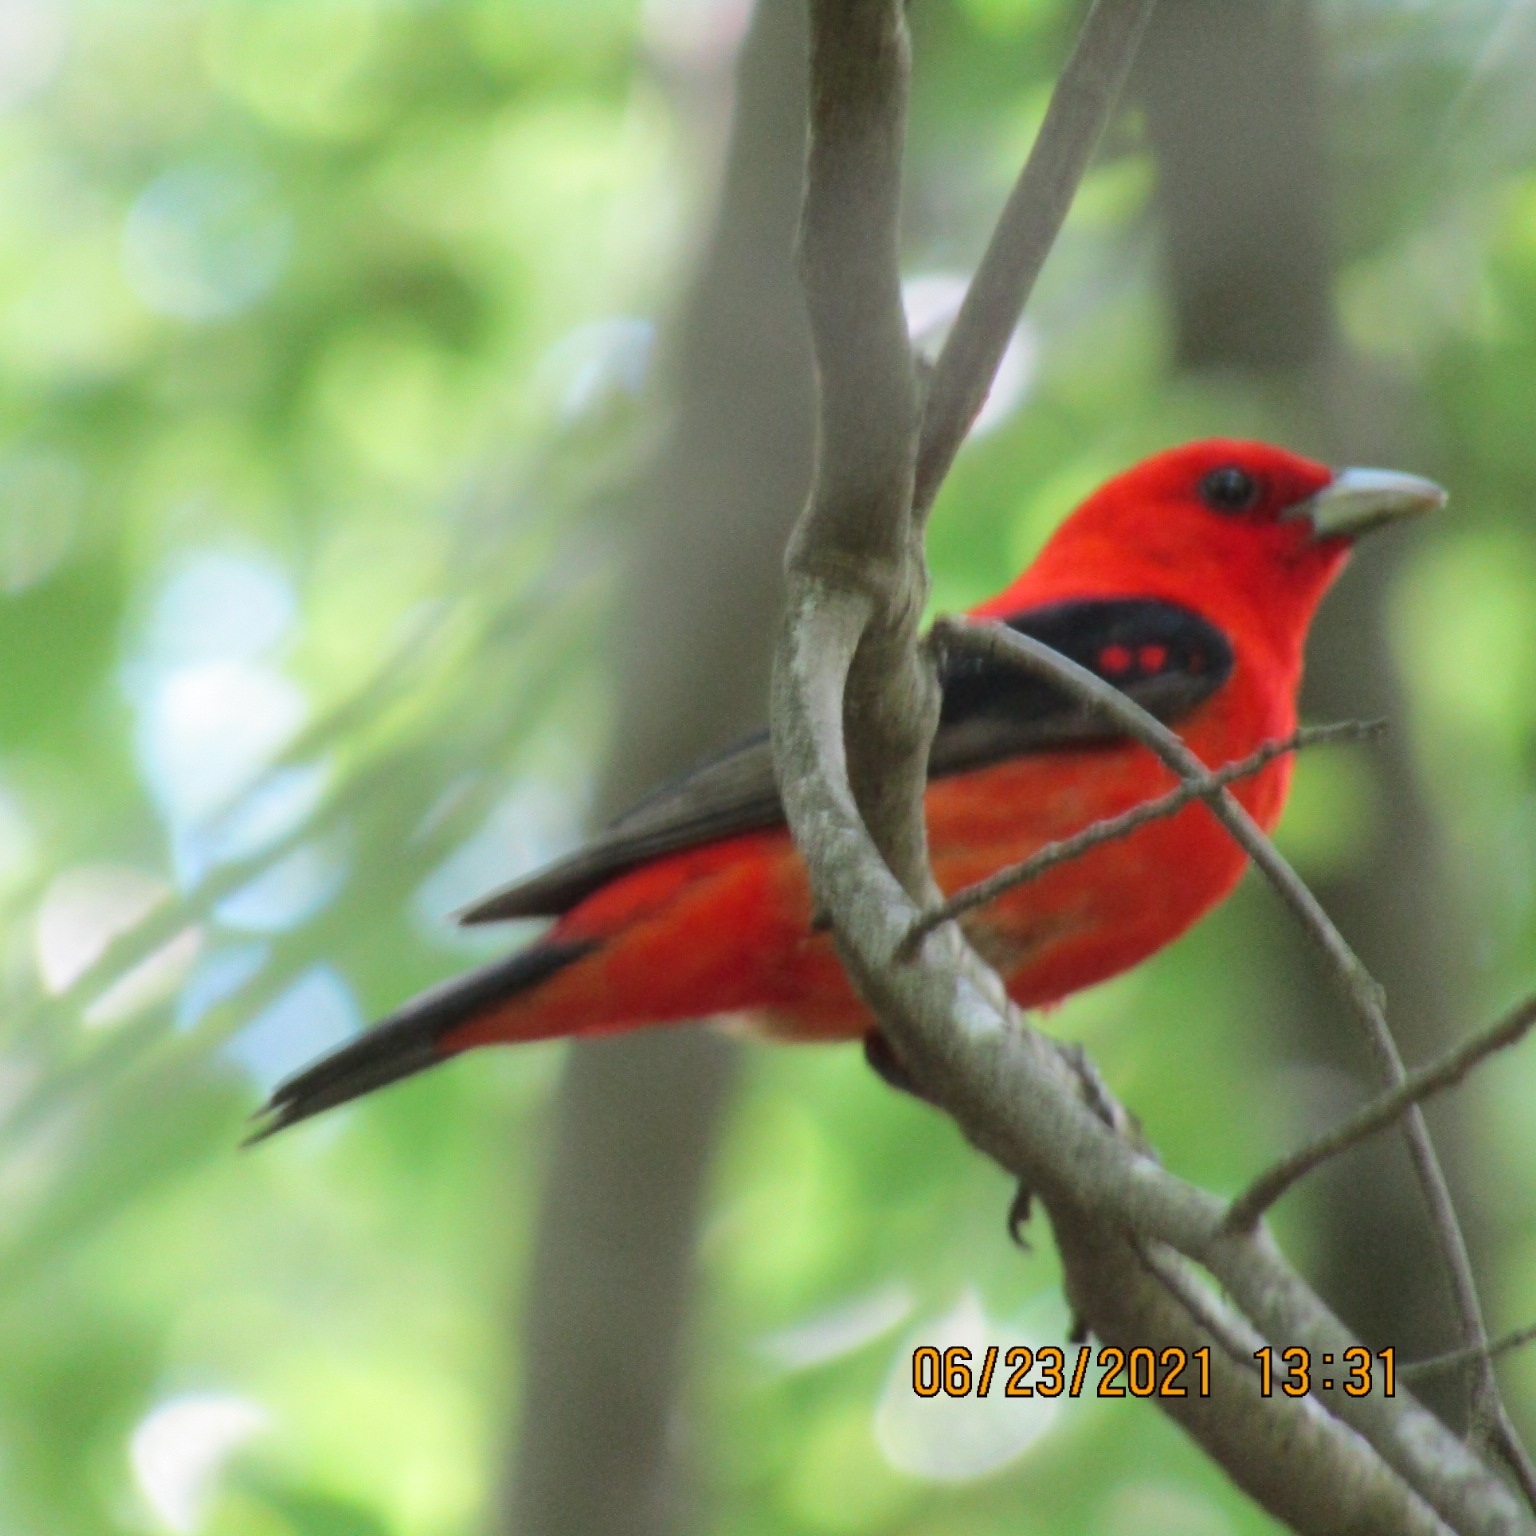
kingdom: Animalia
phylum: Chordata
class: Aves
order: Passeriformes
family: Cardinalidae
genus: Piranga
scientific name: Piranga olivacea
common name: Scarlet tanager
